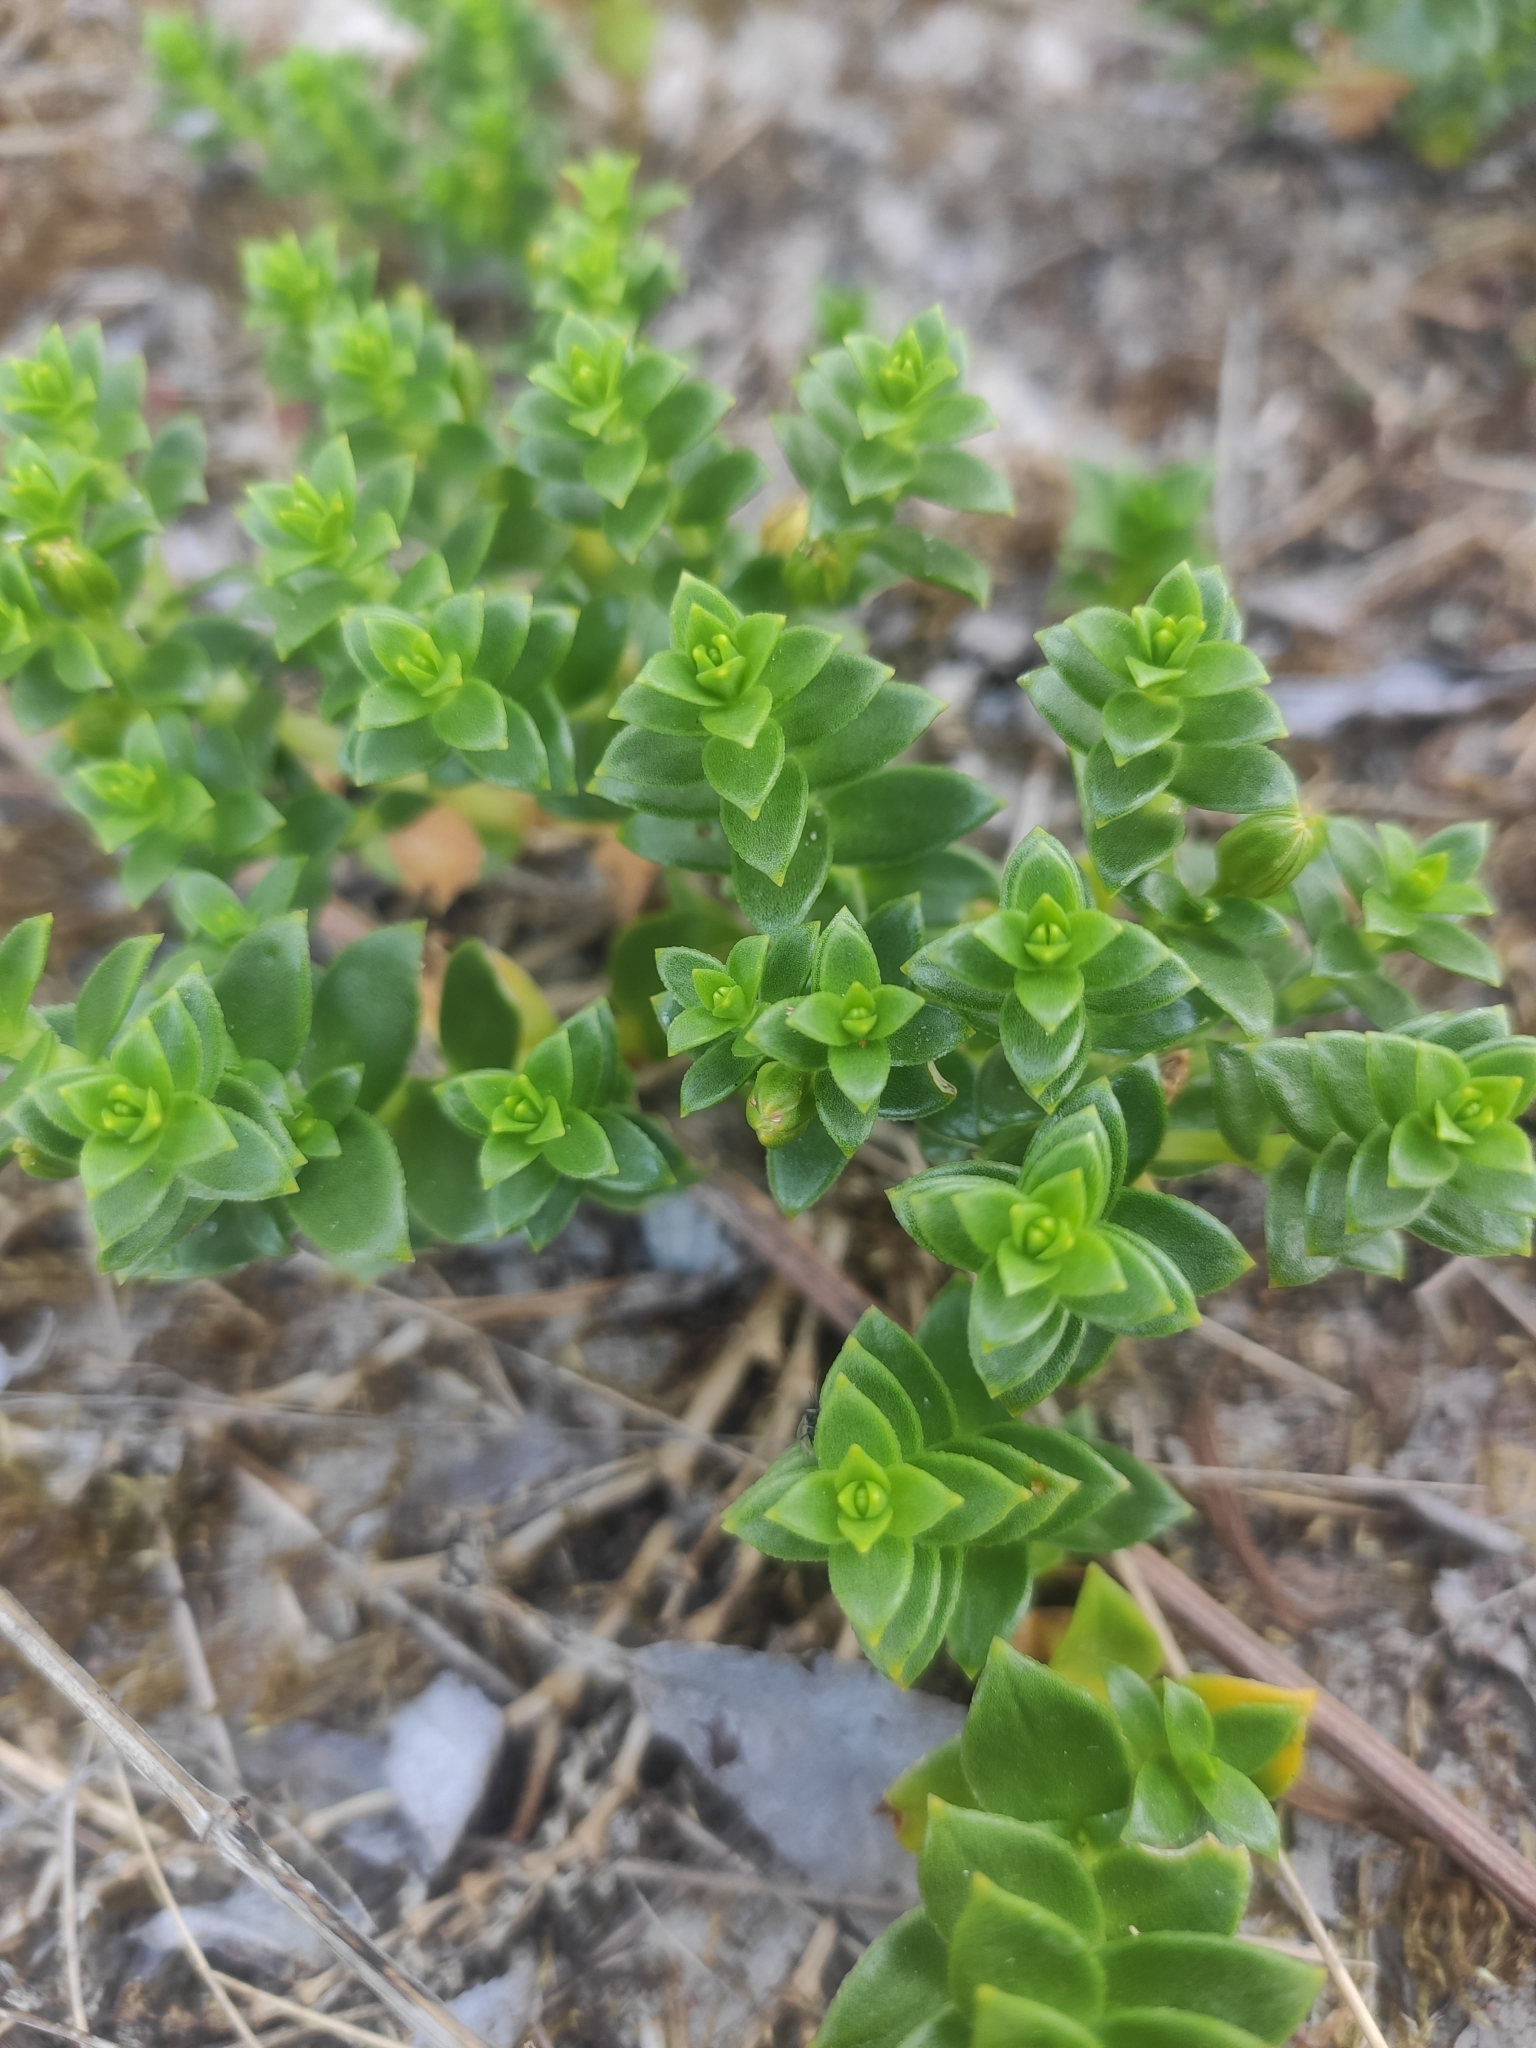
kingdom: Plantae
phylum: Tracheophyta
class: Magnoliopsida
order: Caryophyllales
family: Caryophyllaceae
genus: Honckenya
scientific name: Honckenya peploides
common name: Sea sandwort
